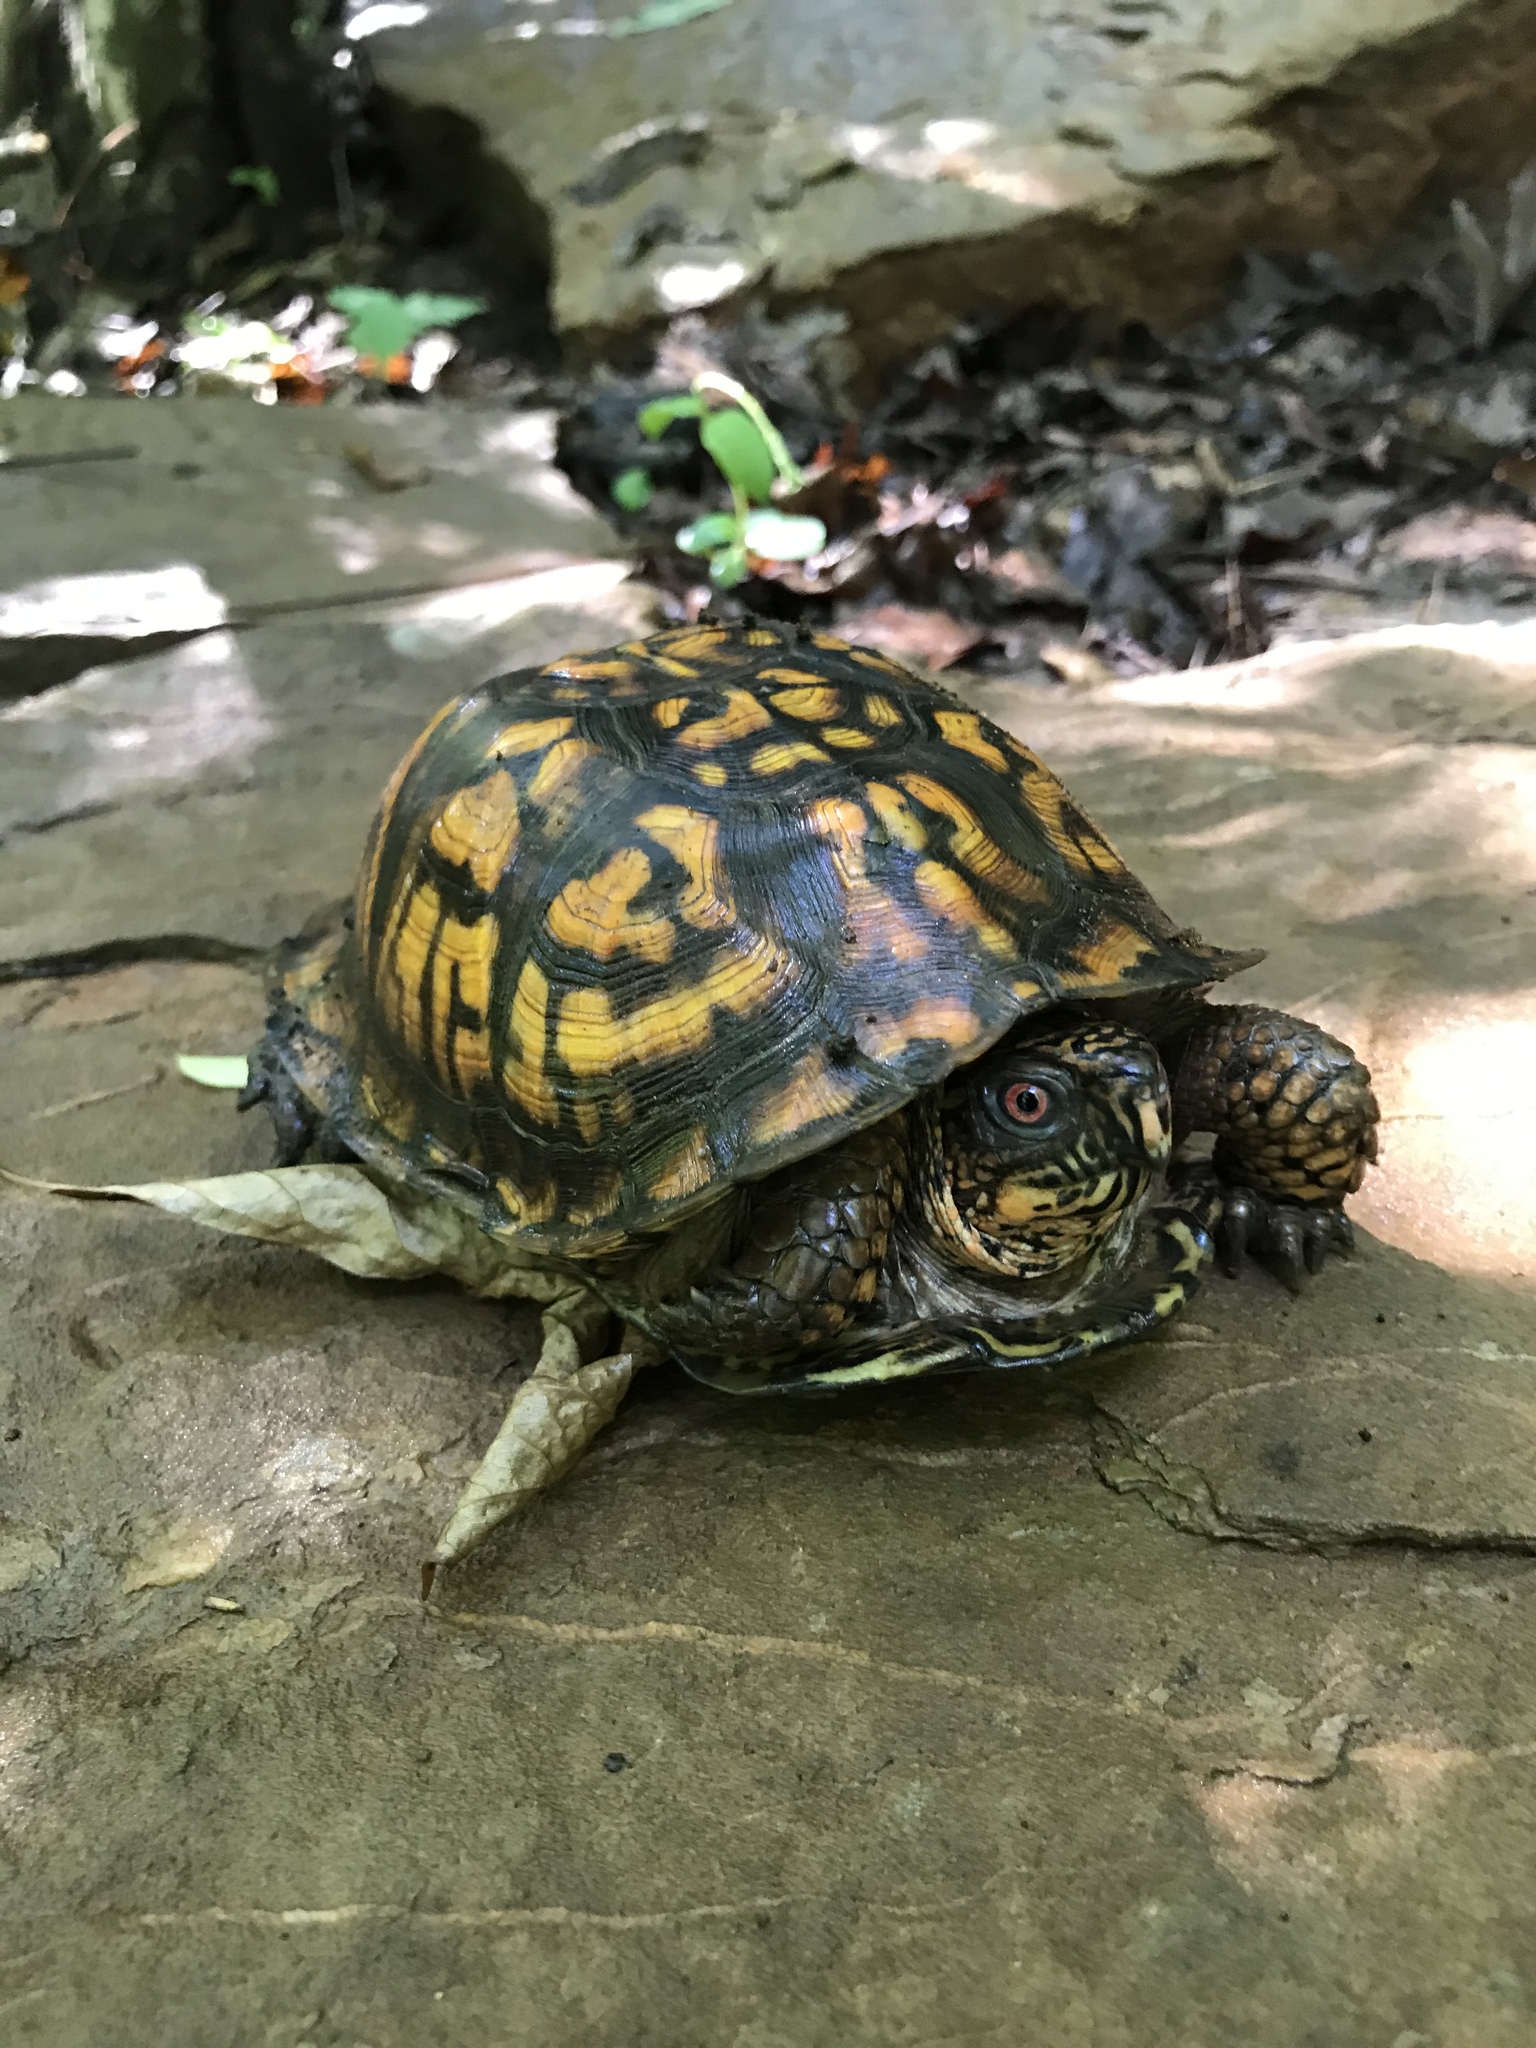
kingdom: Animalia
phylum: Chordata
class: Testudines
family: Emydidae
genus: Terrapene
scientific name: Terrapene carolina
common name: Common box turtle
